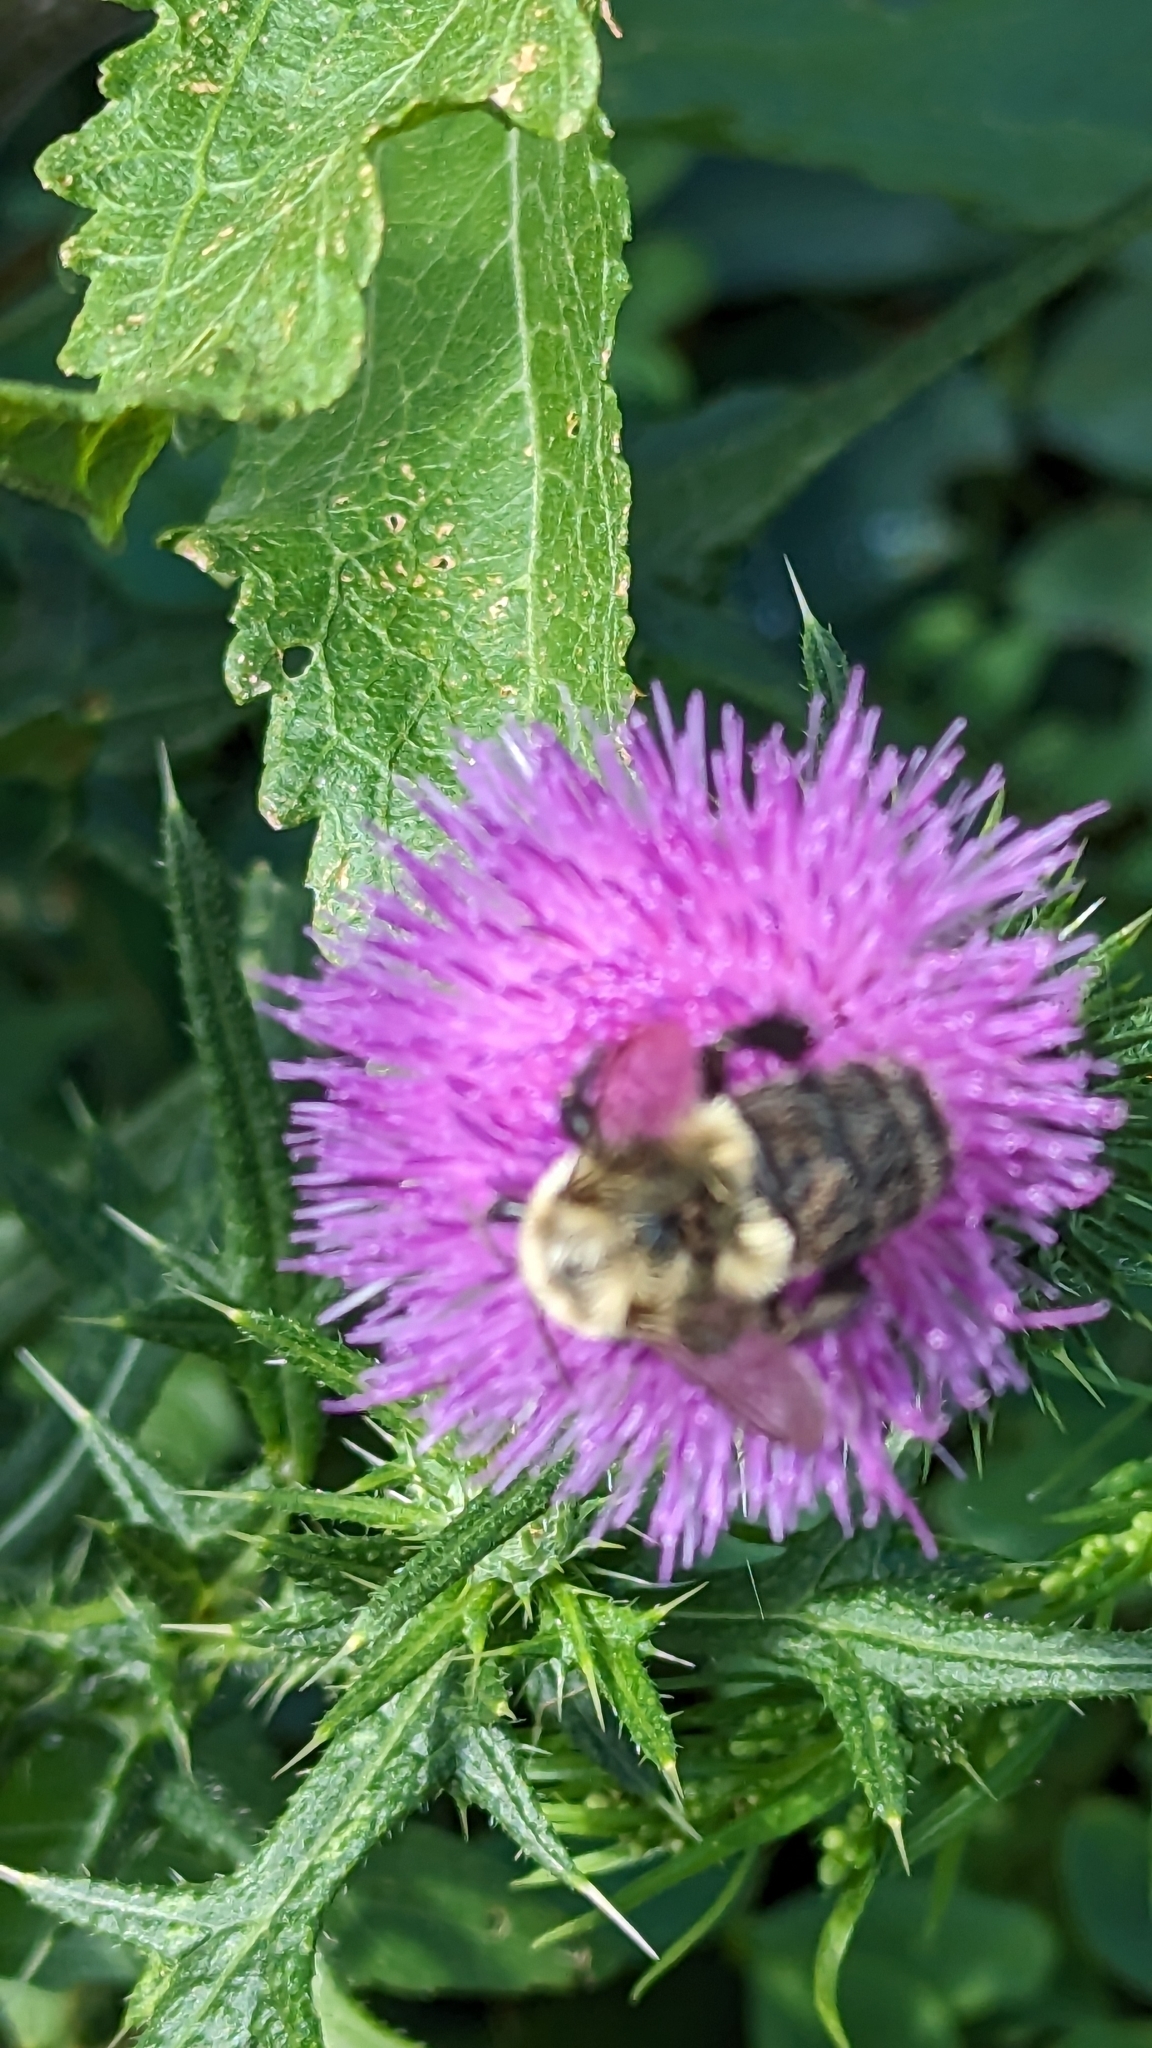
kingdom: Animalia
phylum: Arthropoda
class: Insecta
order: Hymenoptera
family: Apidae
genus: Bombus
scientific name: Bombus impatiens
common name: Common eastern bumble bee
